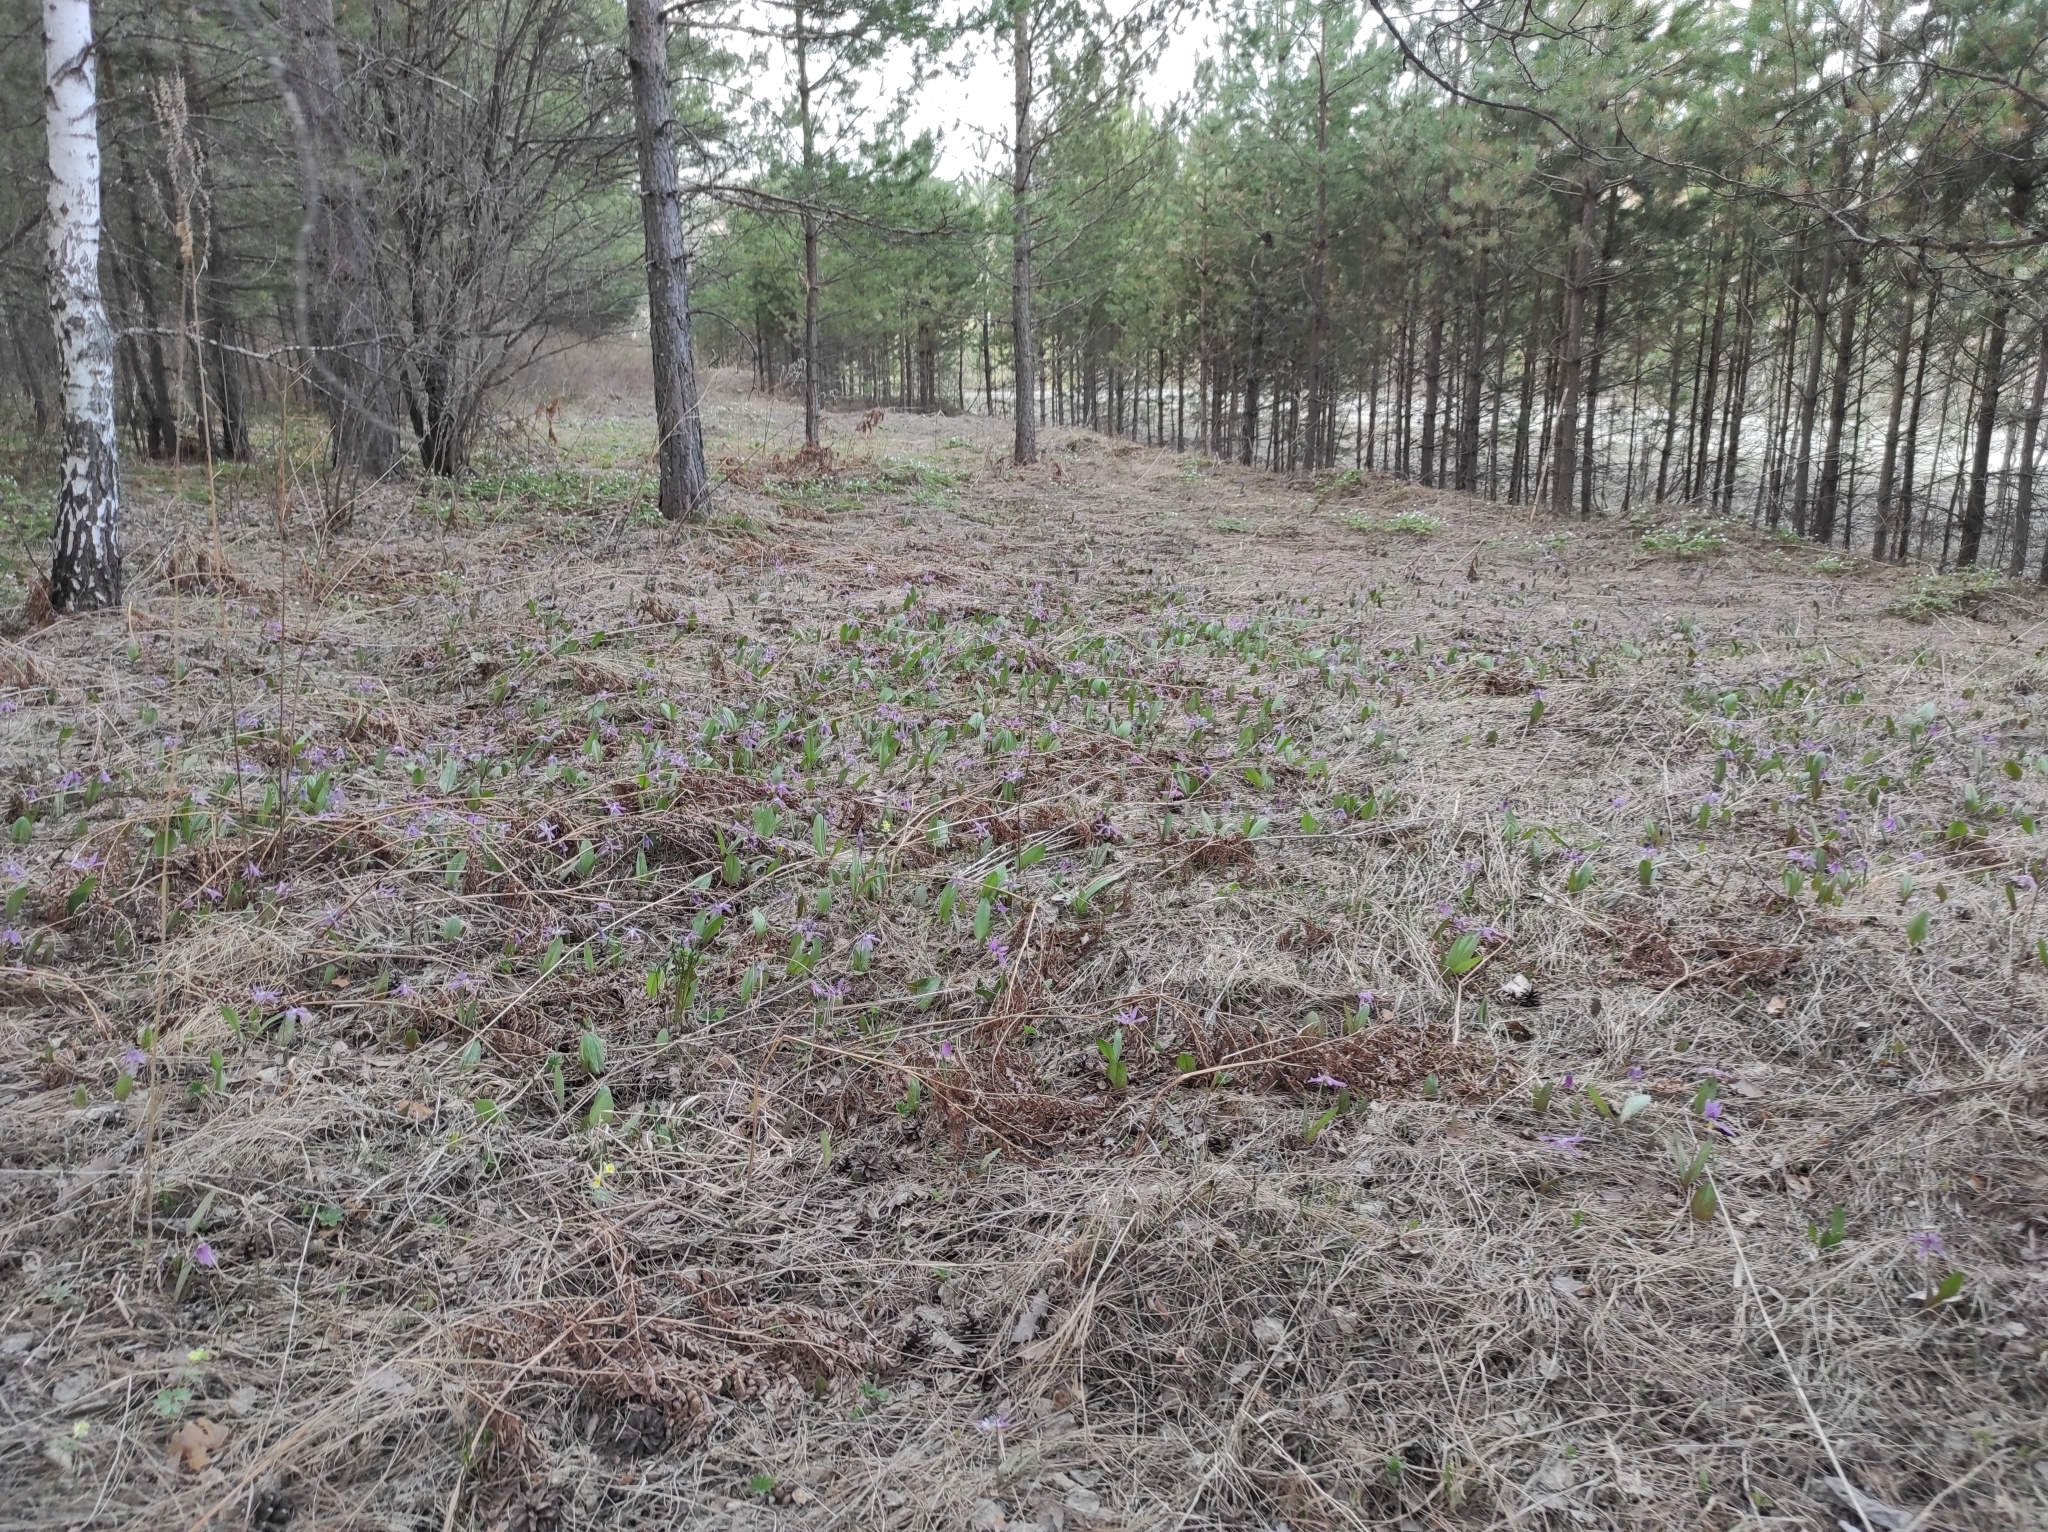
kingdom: Plantae
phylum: Tracheophyta
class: Magnoliopsida
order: Fagales
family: Betulaceae
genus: Betula
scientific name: Betula pendula
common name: Silver birch
